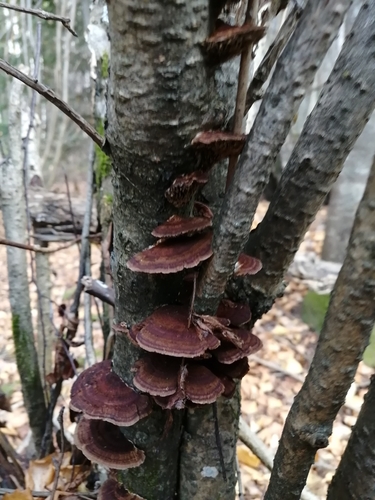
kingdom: Fungi
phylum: Basidiomycota
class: Agaricomycetes
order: Polyporales
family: Polyporaceae
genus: Daedaleopsis
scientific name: Daedaleopsis tricolor
